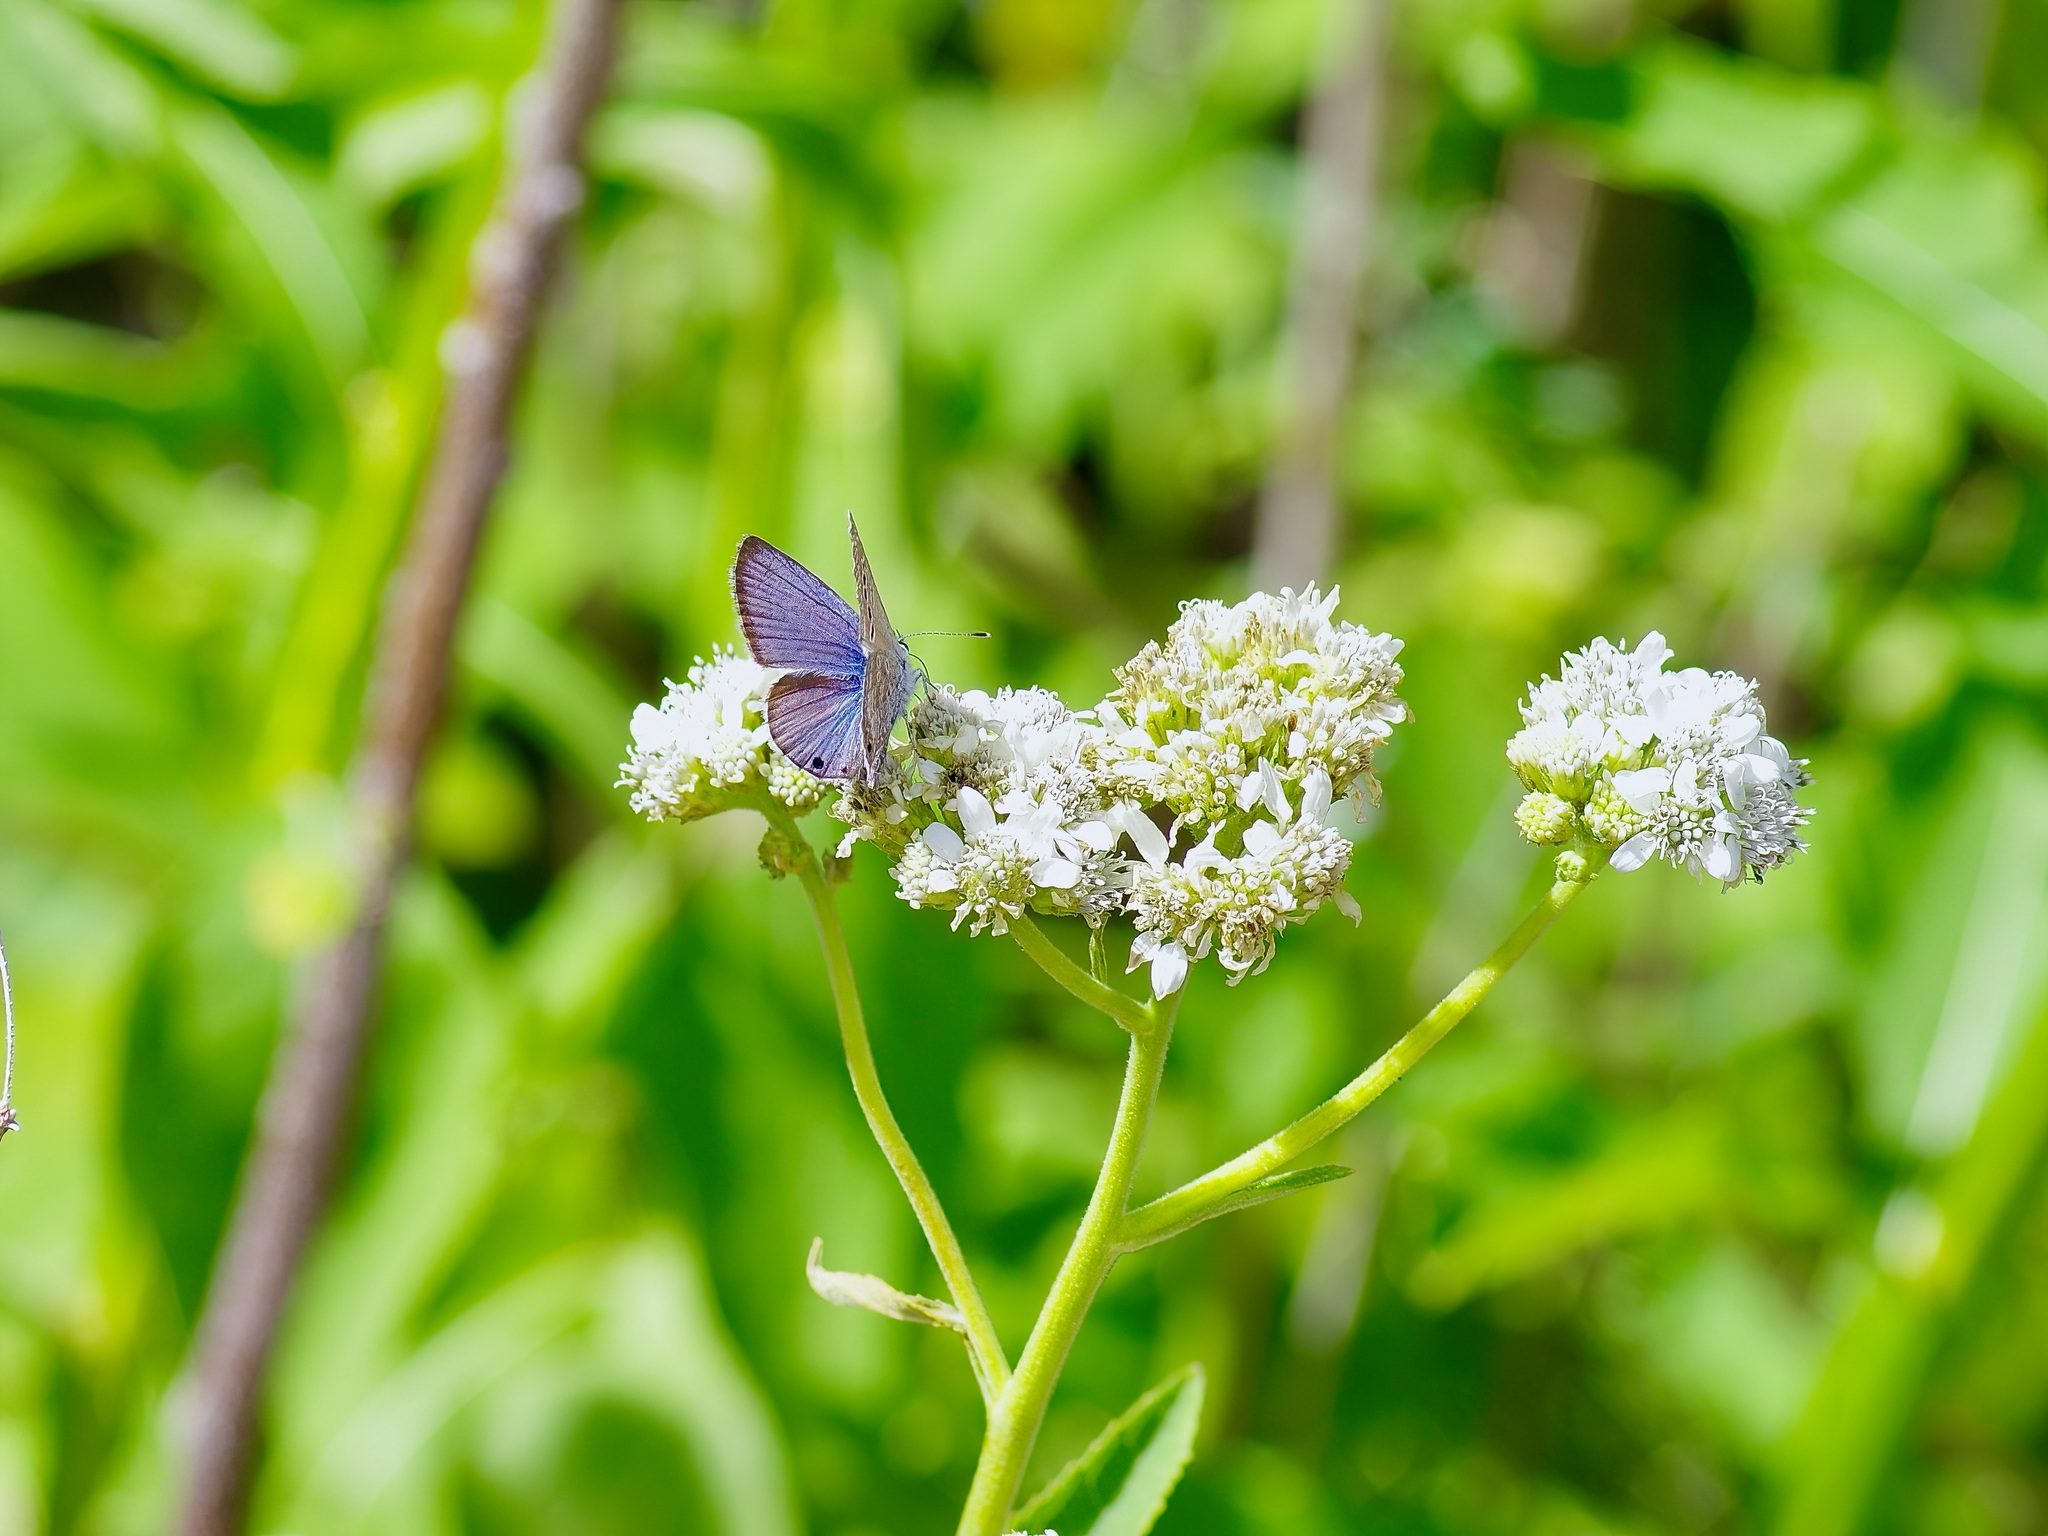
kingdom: Animalia
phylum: Arthropoda
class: Insecta
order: Lepidoptera
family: Lycaenidae
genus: Echinargus
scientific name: Echinargus isola
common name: Reakirt's blue
